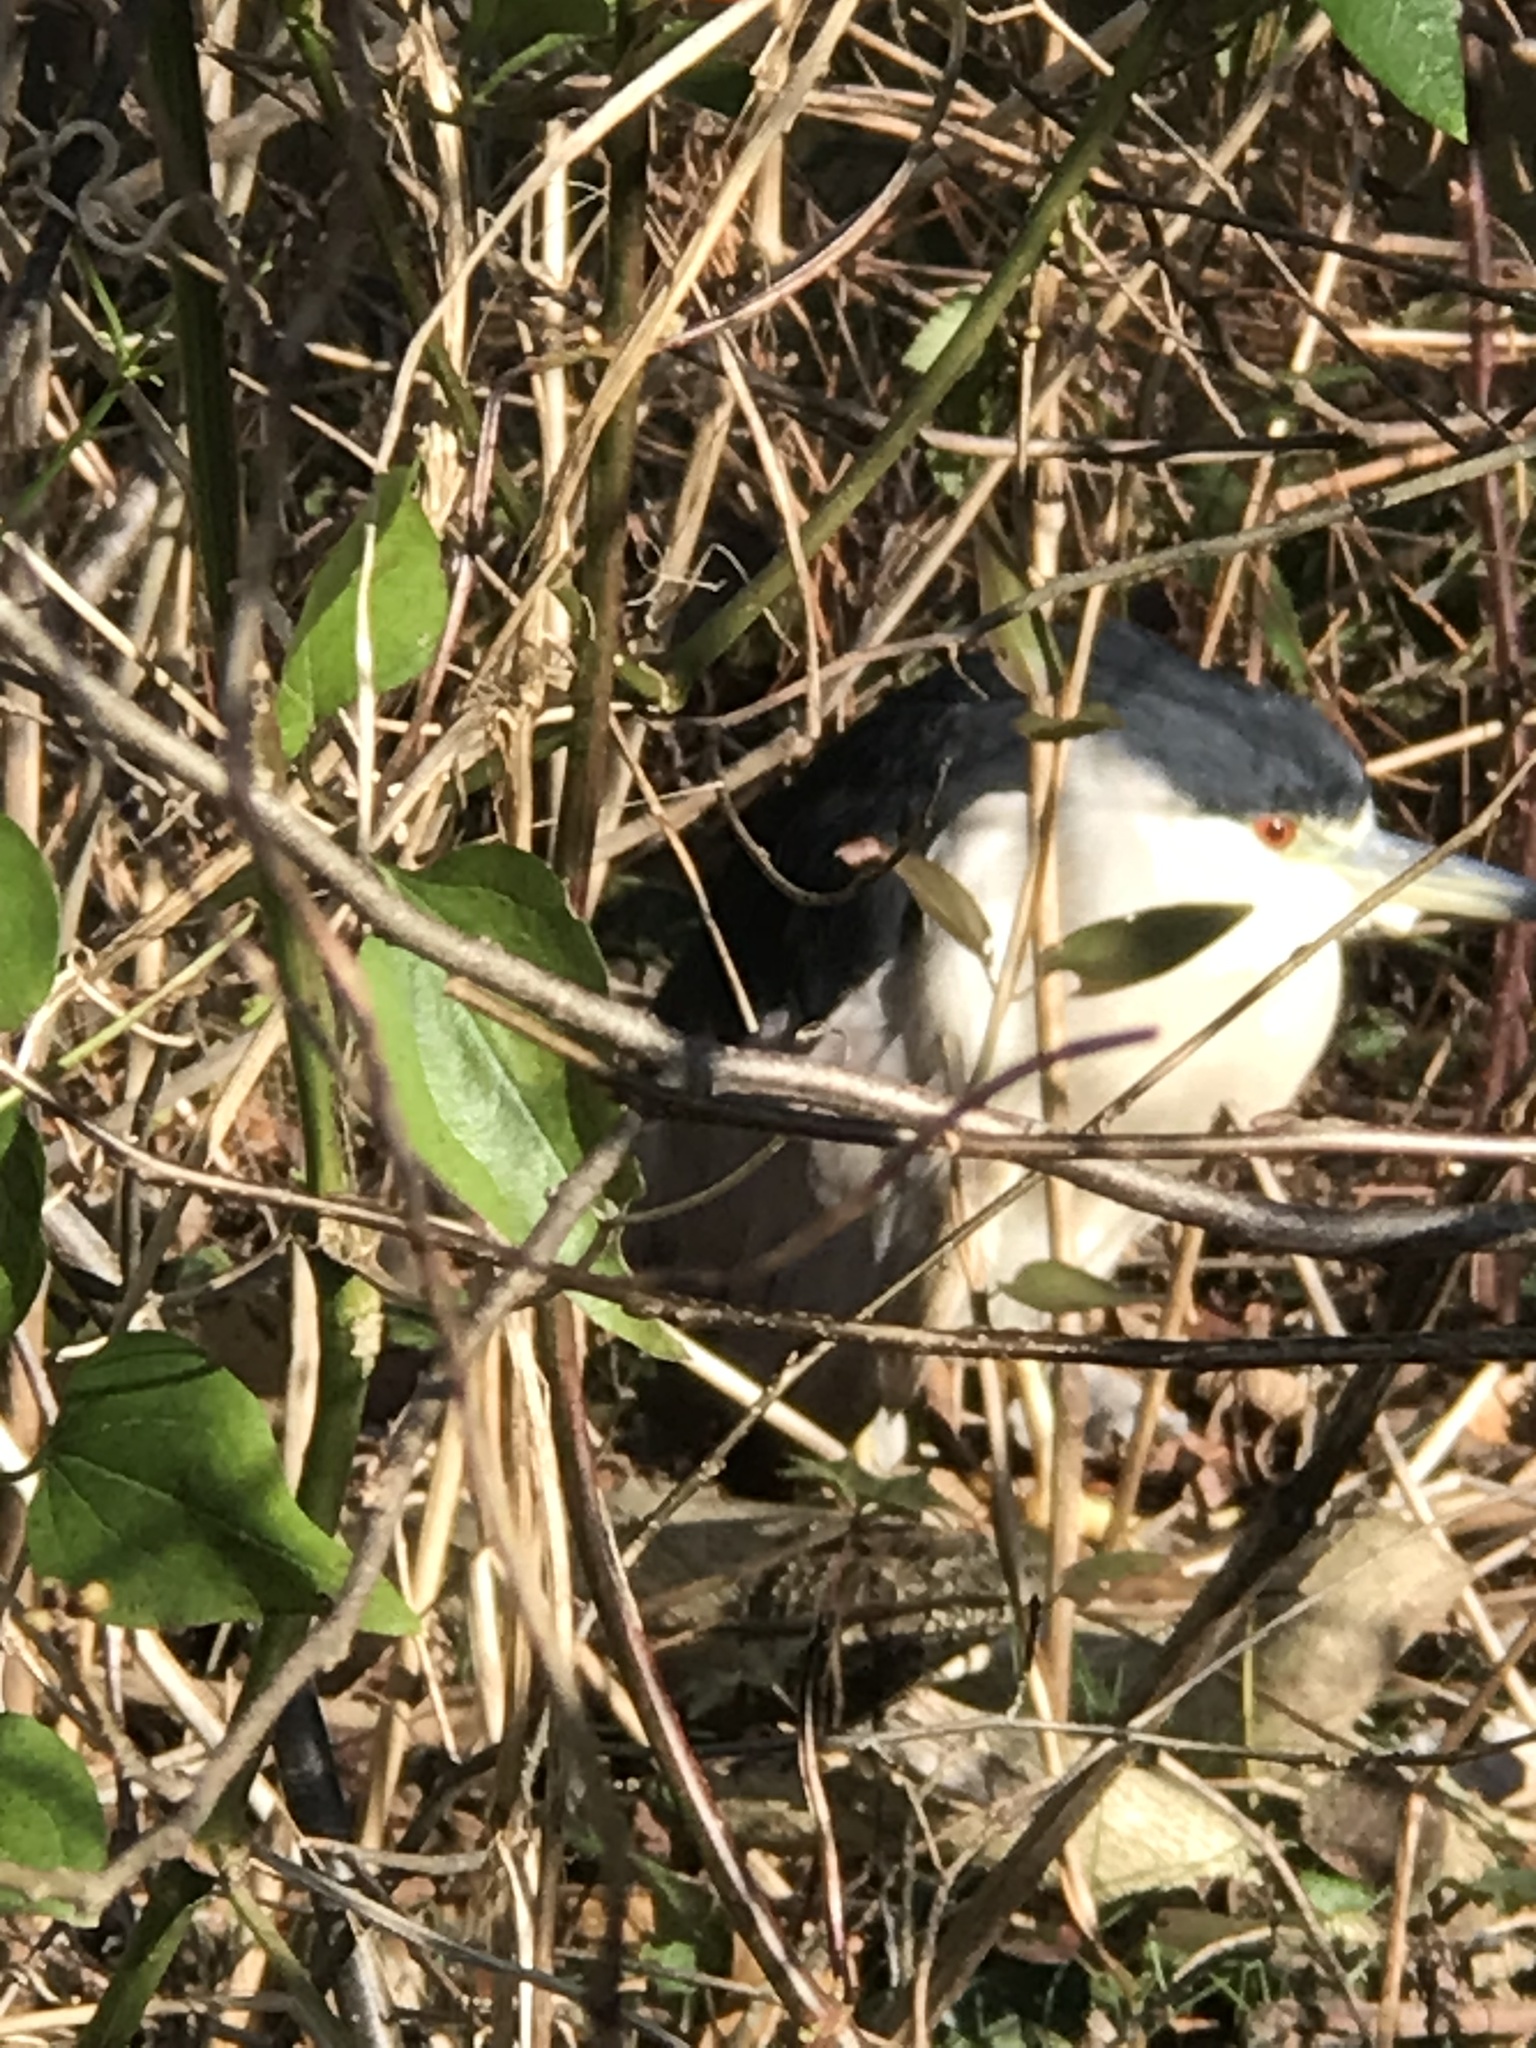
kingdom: Animalia
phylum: Chordata
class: Aves
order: Pelecaniformes
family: Ardeidae
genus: Nycticorax
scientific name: Nycticorax nycticorax
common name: Black-crowned night heron
